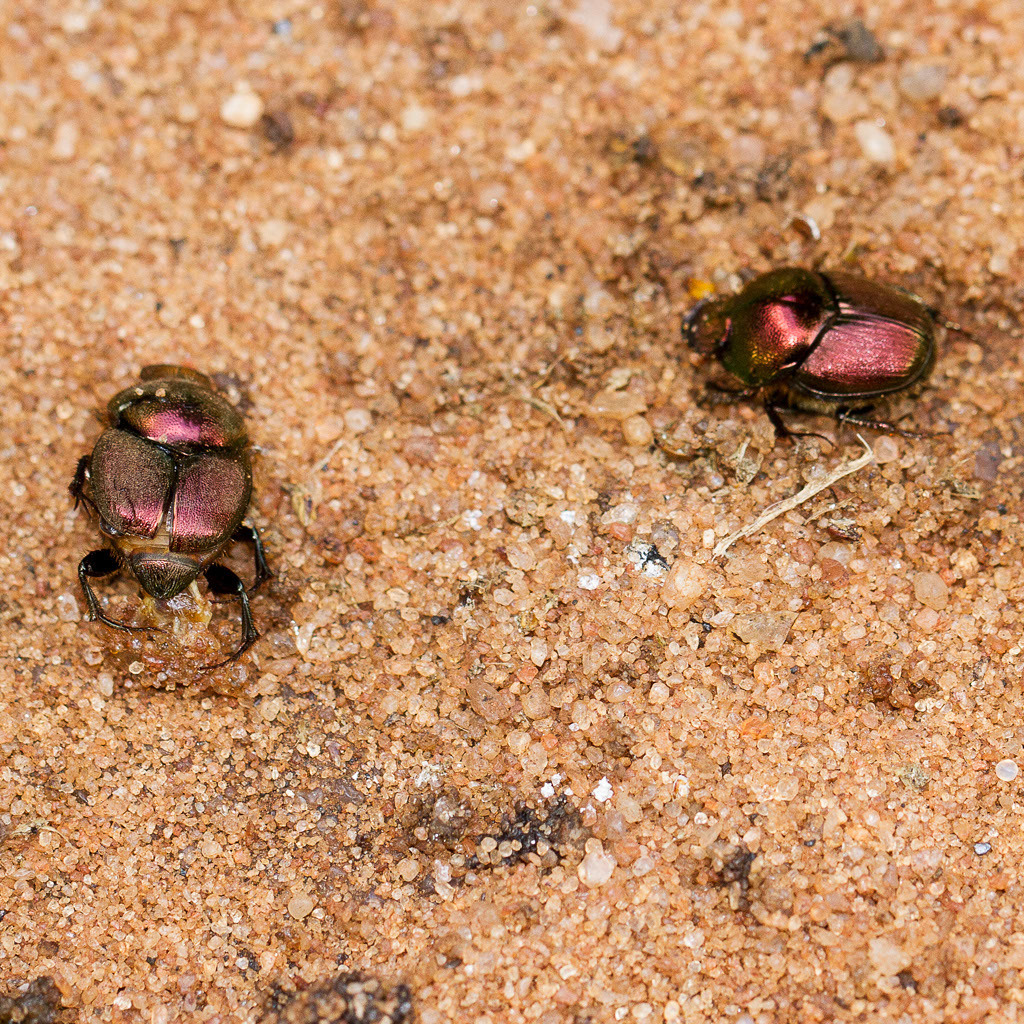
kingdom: Animalia
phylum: Arthropoda
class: Insecta
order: Coleoptera
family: Scarabaeidae
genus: Proagoderus
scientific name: Proagoderus dives
